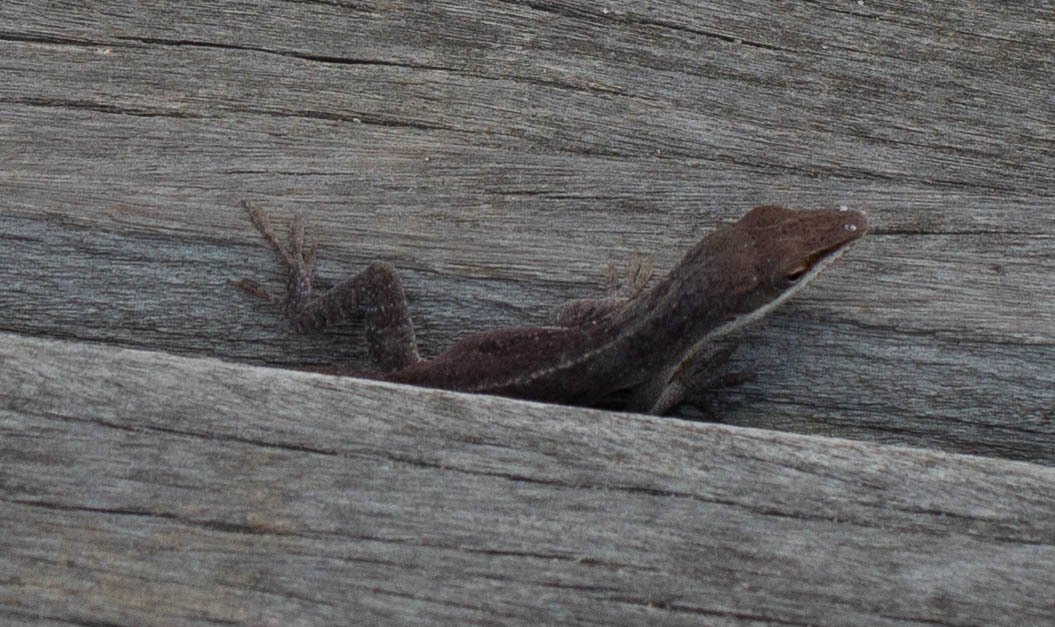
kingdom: Animalia
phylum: Chordata
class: Squamata
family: Dactyloidae
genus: Anolis
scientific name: Anolis carolinensis
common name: Green anole
